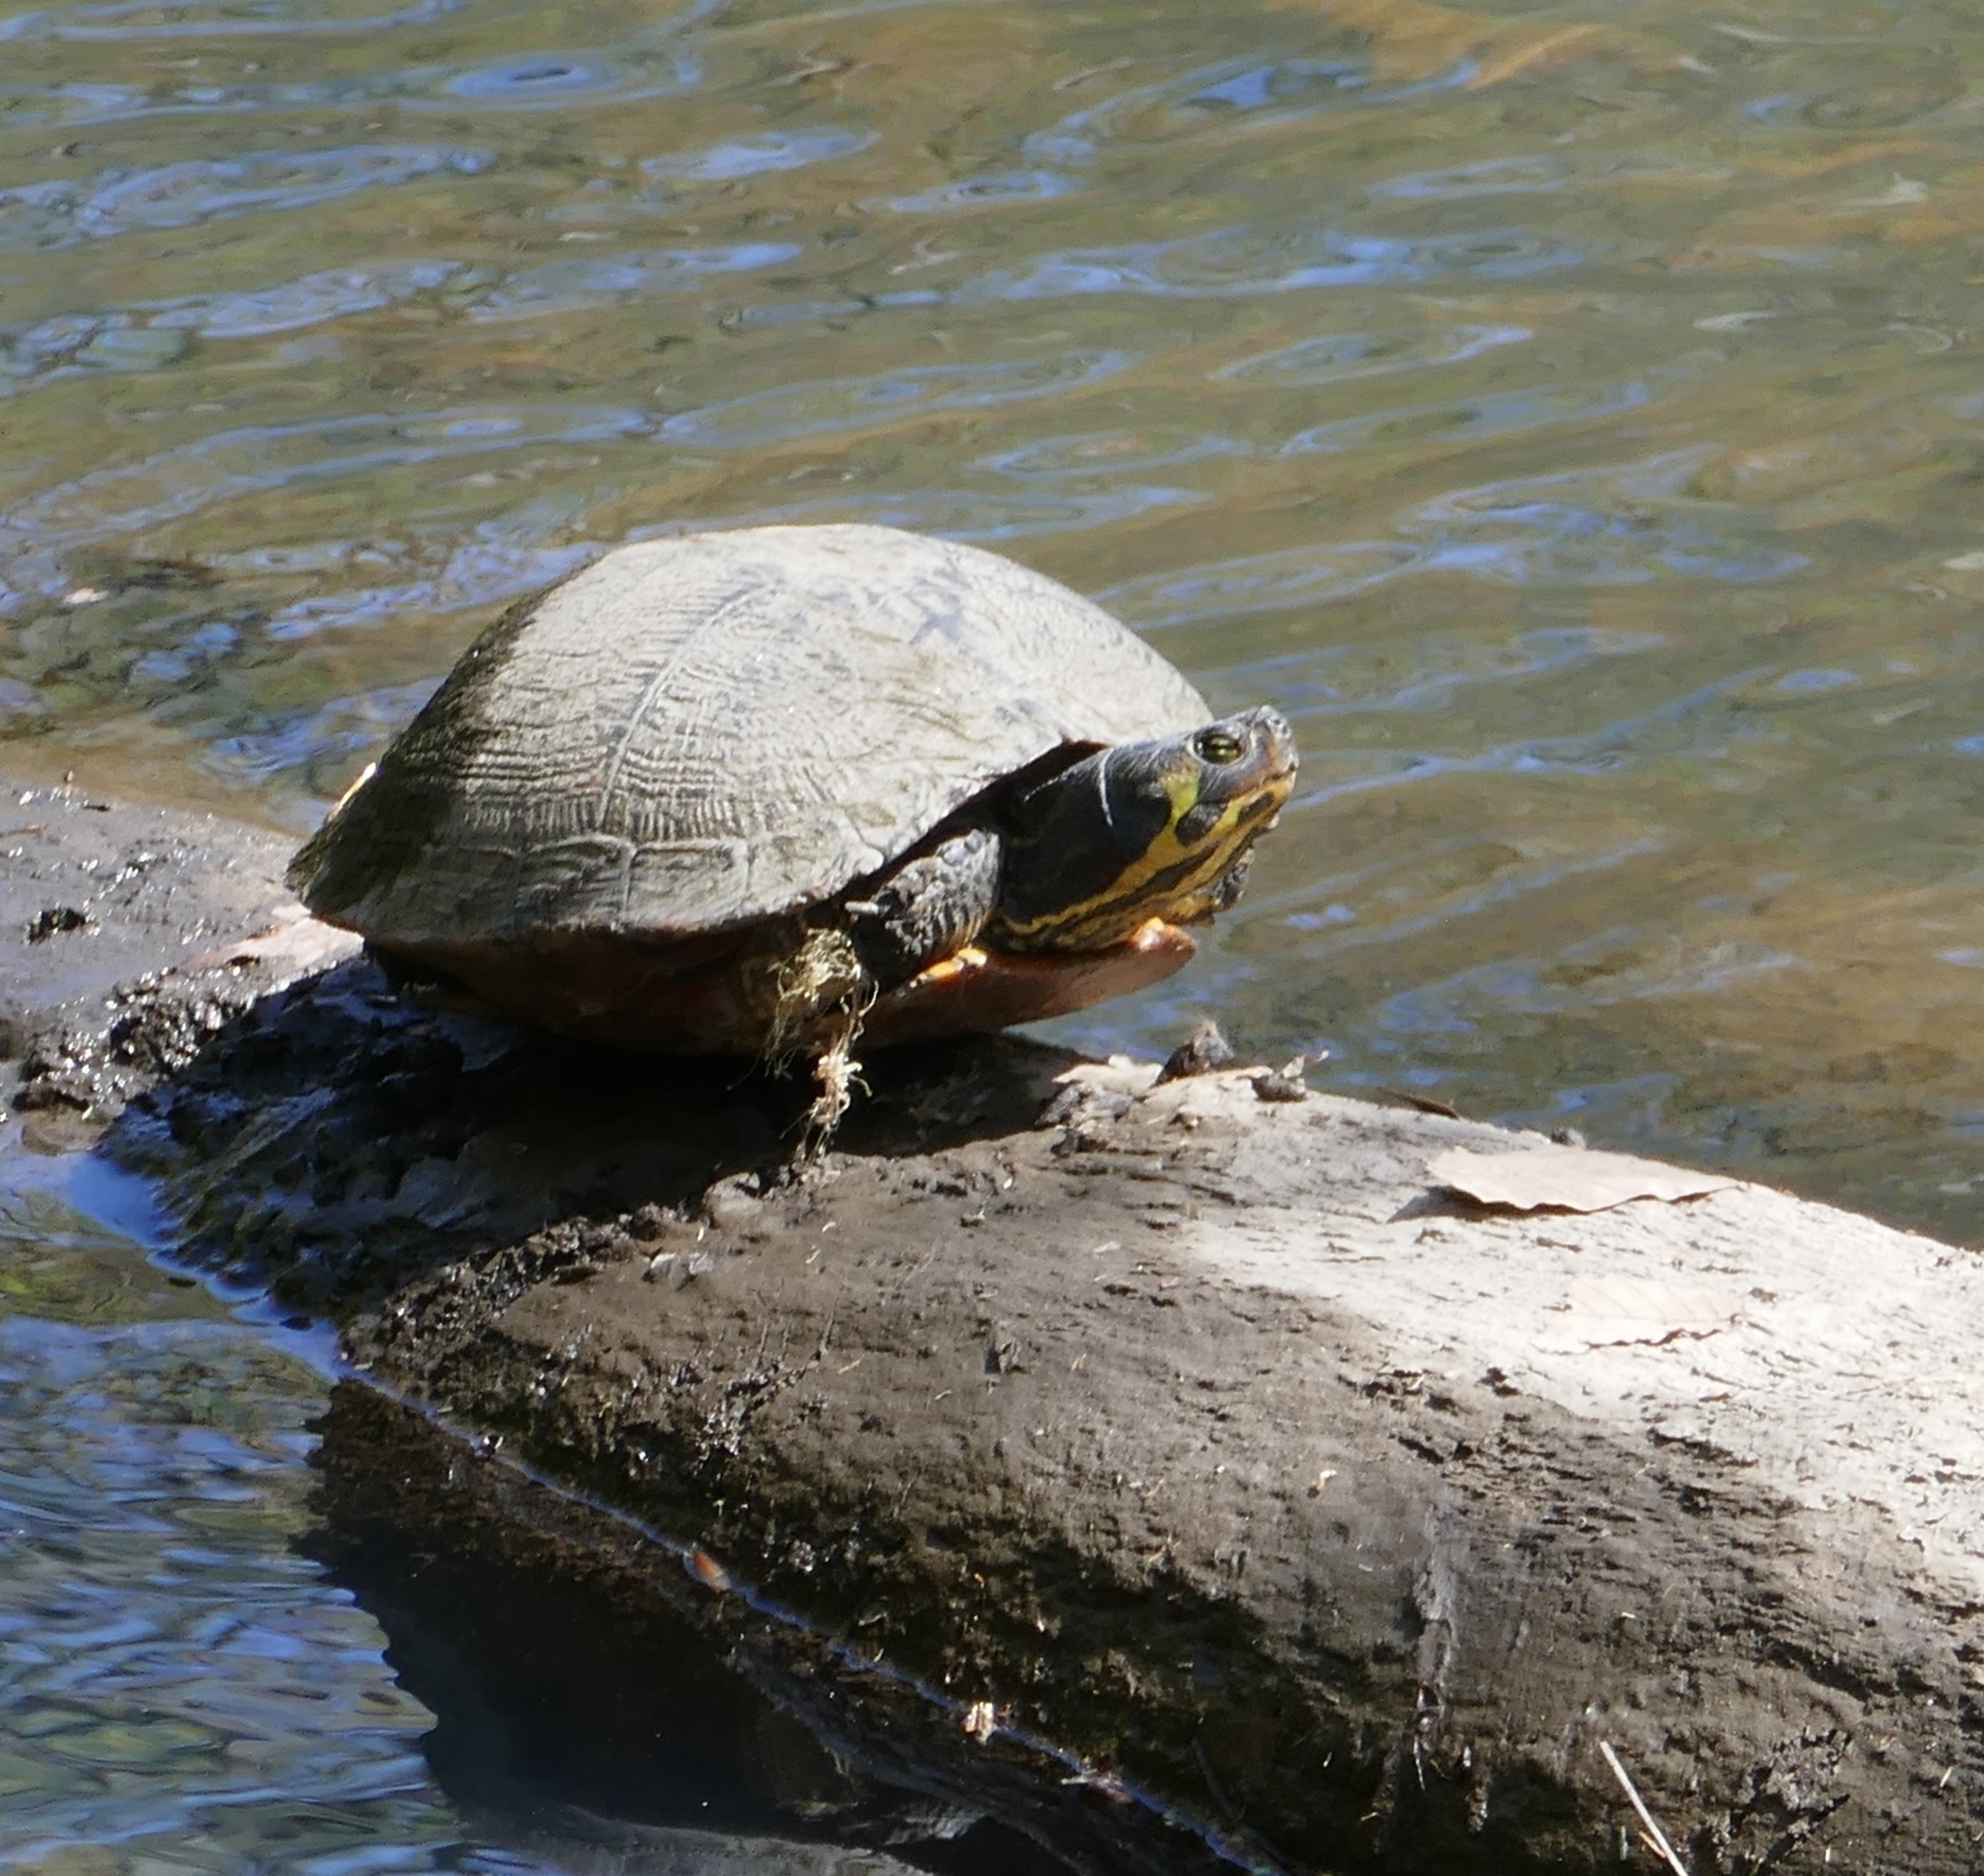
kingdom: Animalia
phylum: Chordata
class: Testudines
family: Emydidae
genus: Trachemys
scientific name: Trachemys scripta
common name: Slider
